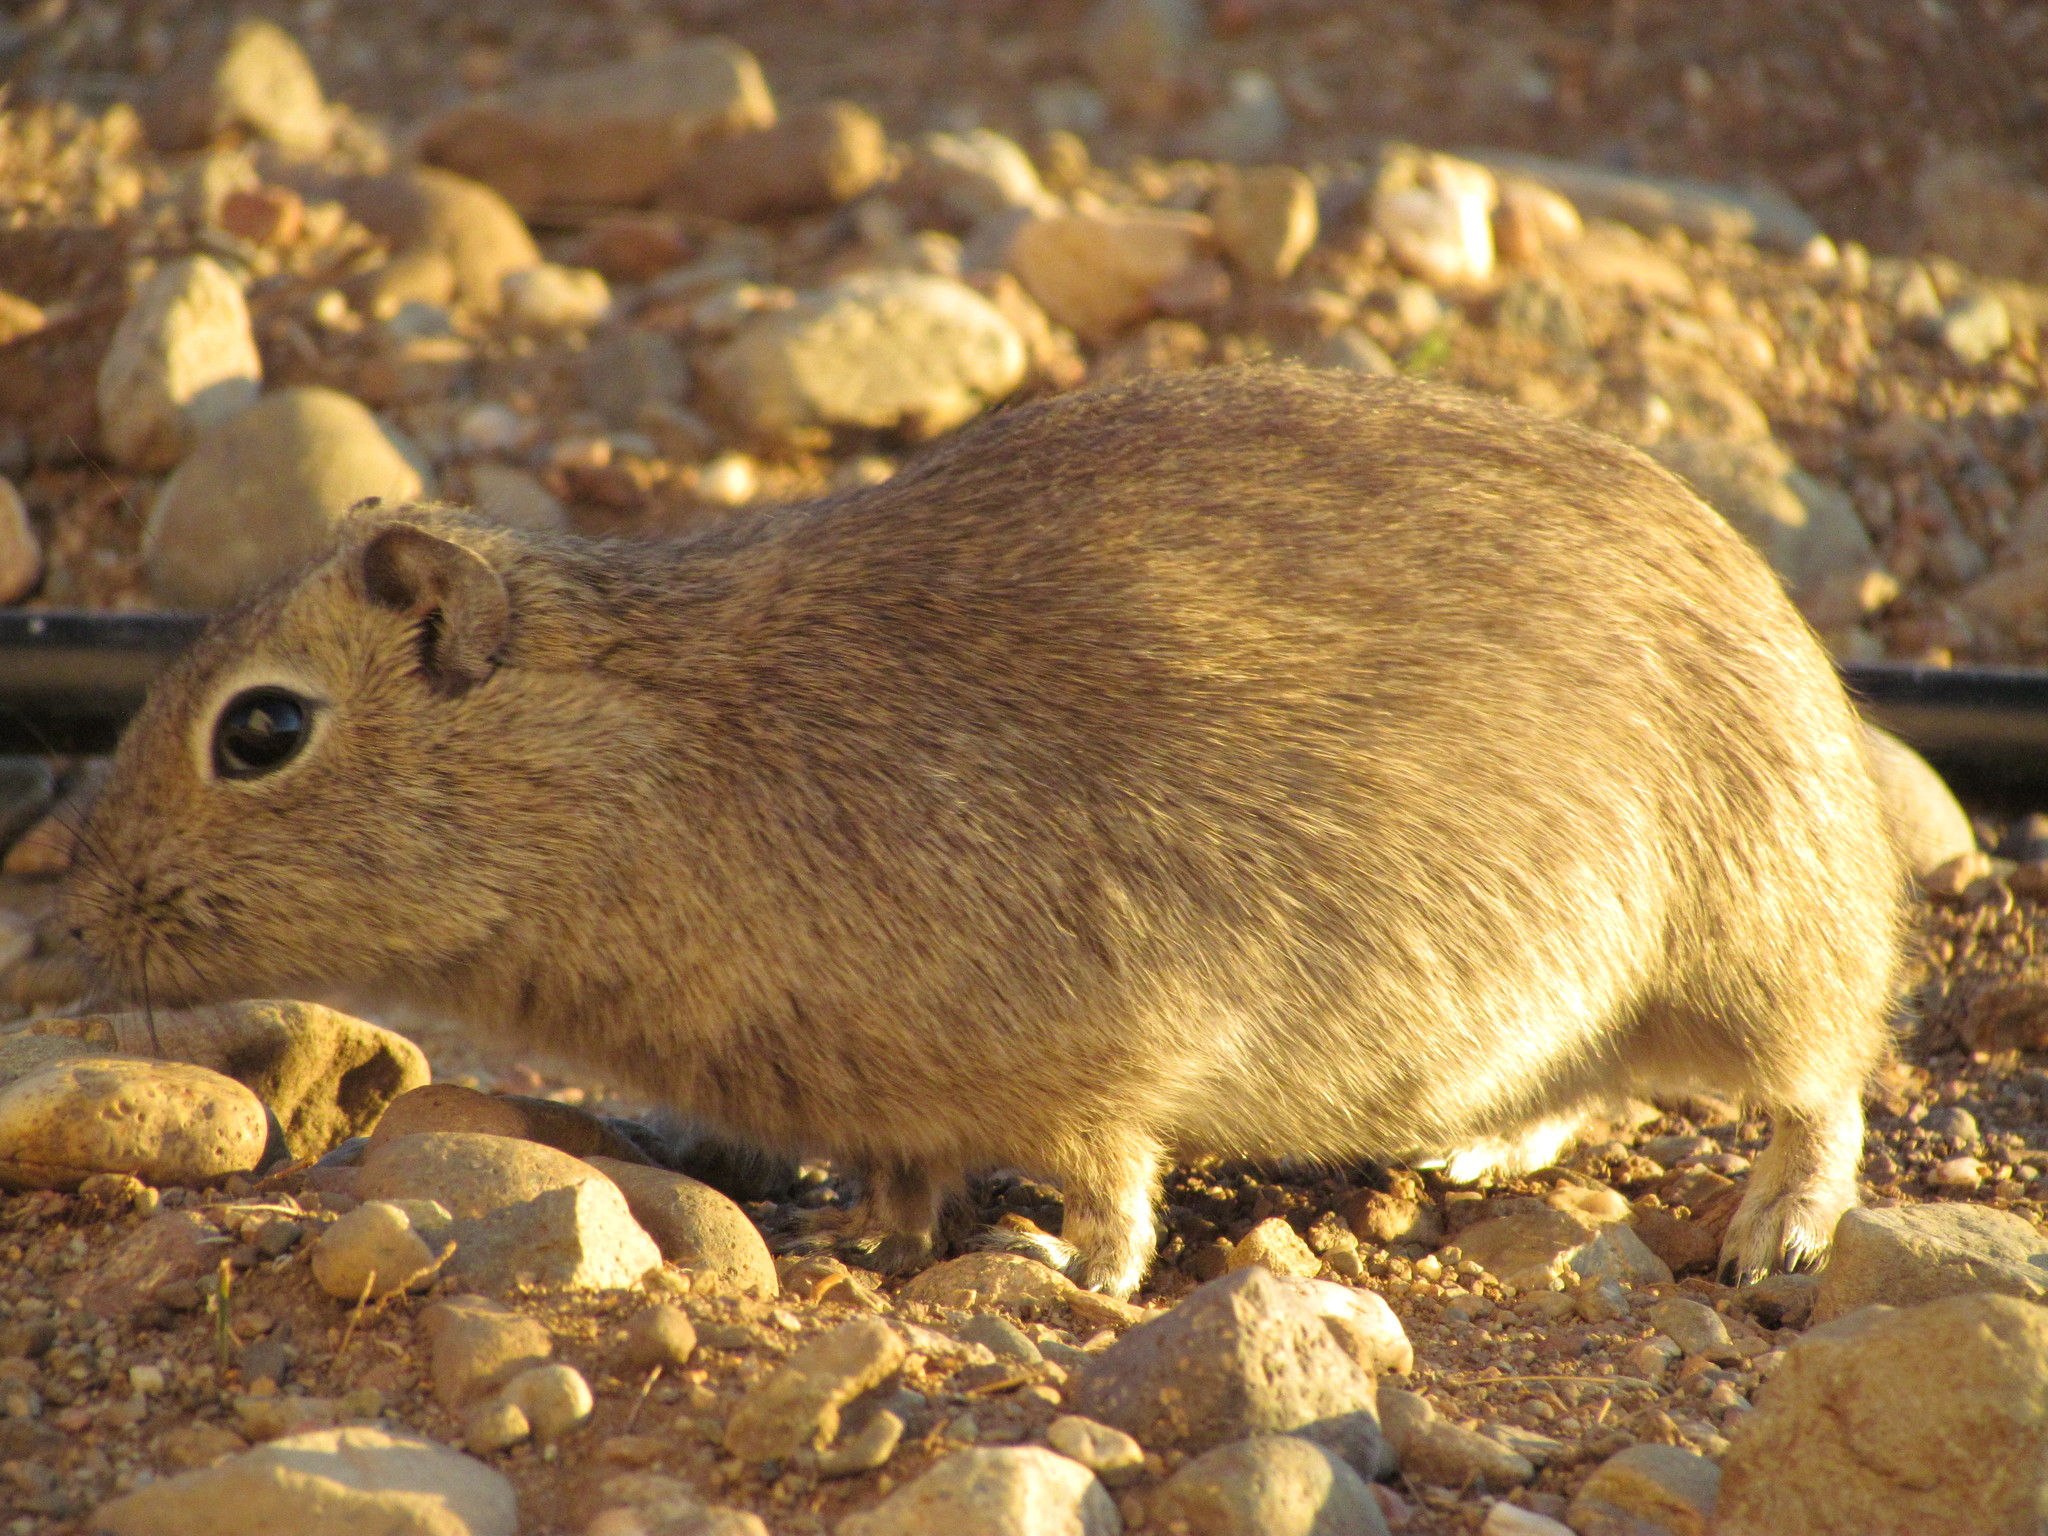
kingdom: Animalia
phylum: Chordata
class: Mammalia
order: Rodentia
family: Caviidae
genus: Microcavia
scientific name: Microcavia australis
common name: Southern mountain cavy
